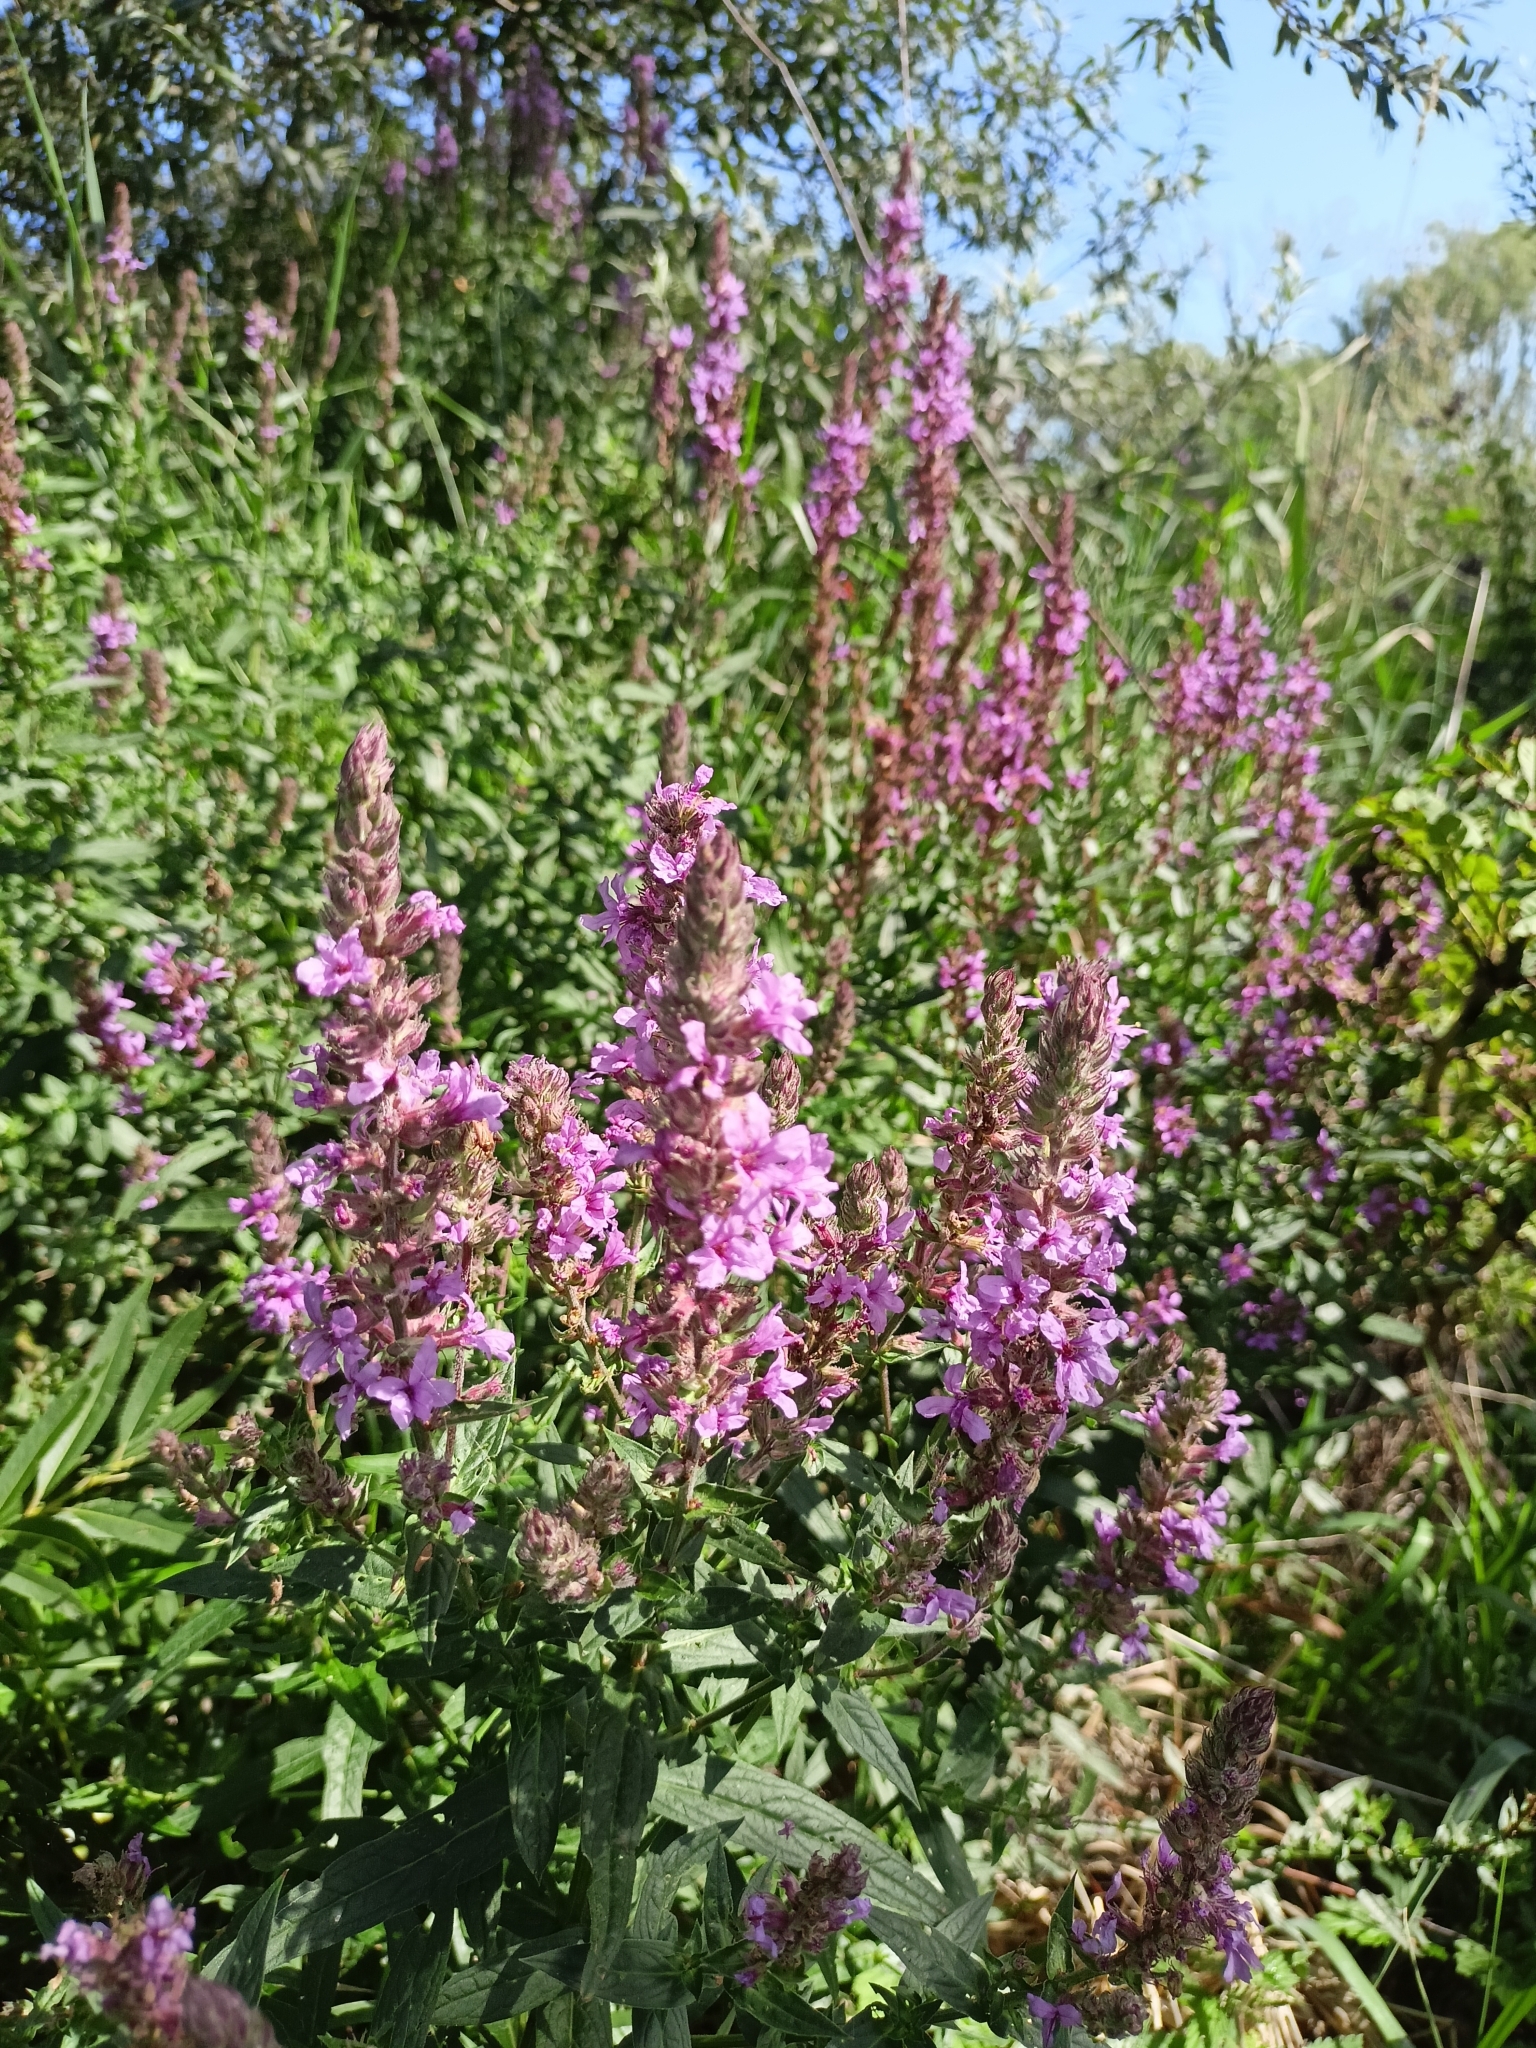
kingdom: Plantae
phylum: Tracheophyta
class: Magnoliopsida
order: Lamiales
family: Lamiaceae
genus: Salvia
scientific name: Salvia nemorosa
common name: Balkan clary
